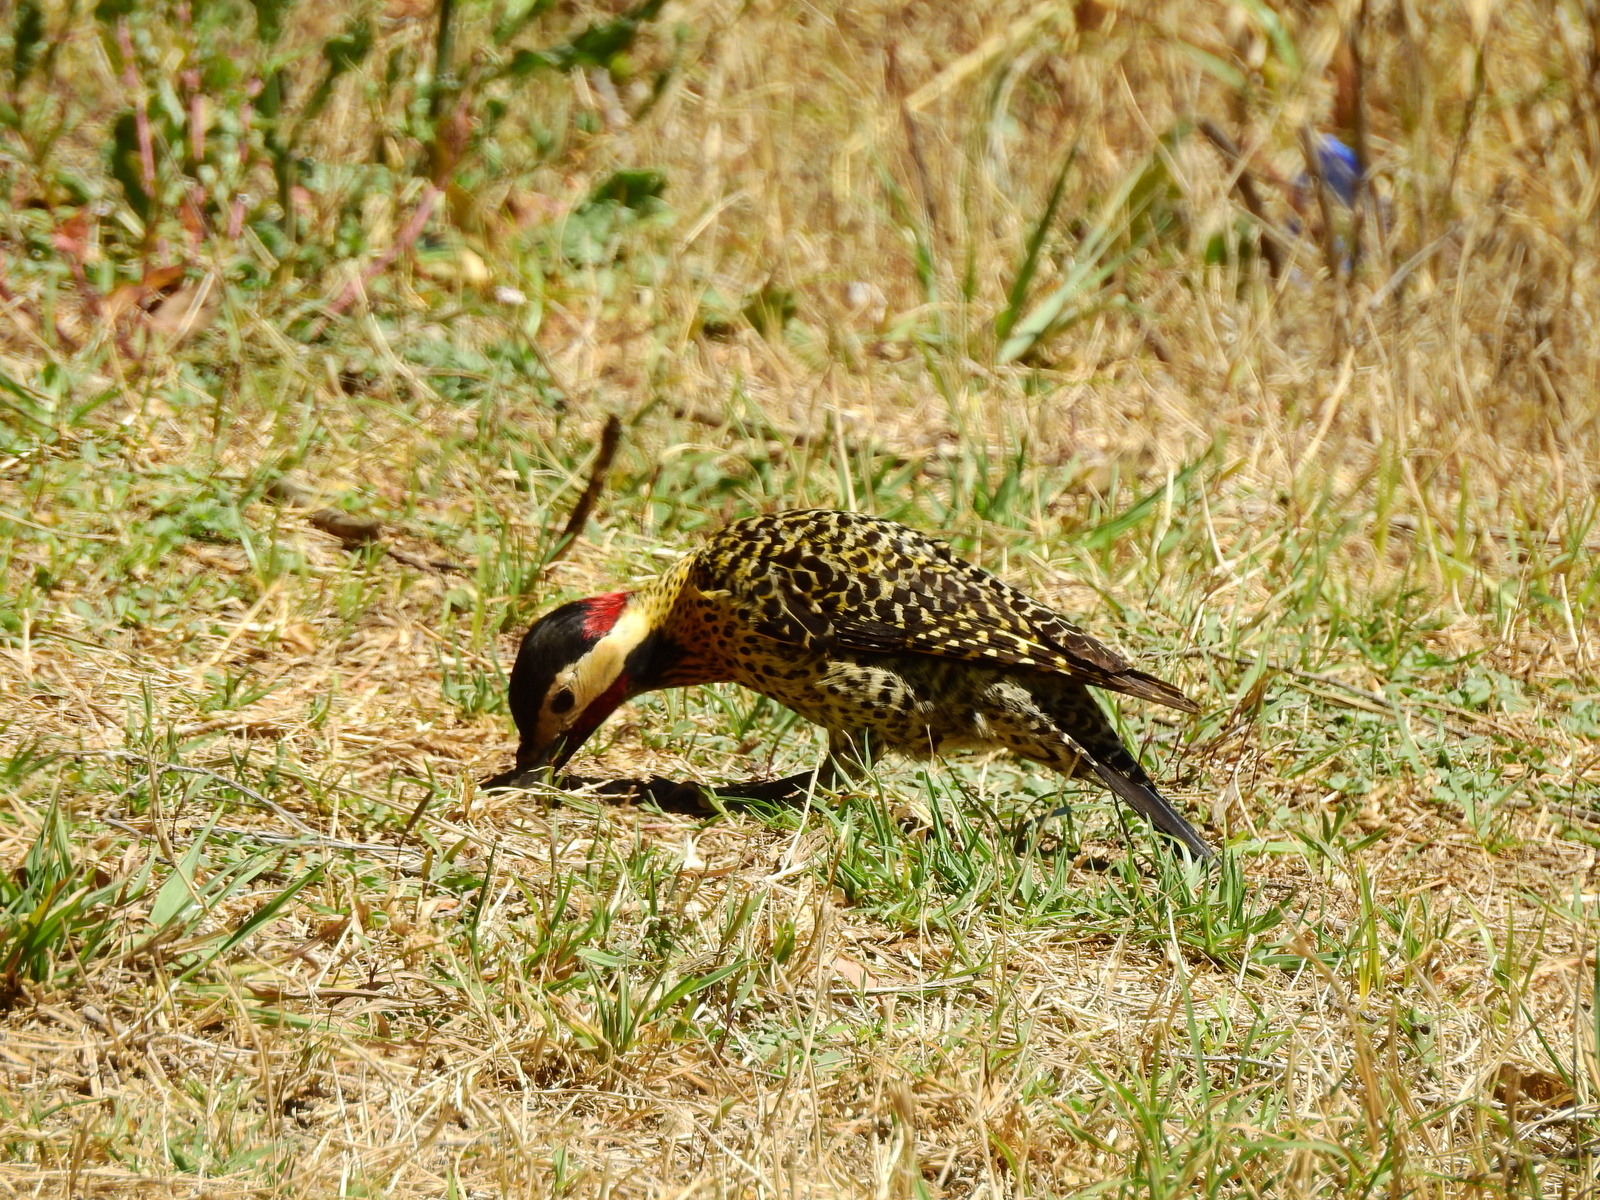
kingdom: Animalia
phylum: Chordata
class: Aves
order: Piciformes
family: Picidae
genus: Colaptes
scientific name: Colaptes melanochloros
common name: Green-barred woodpecker
